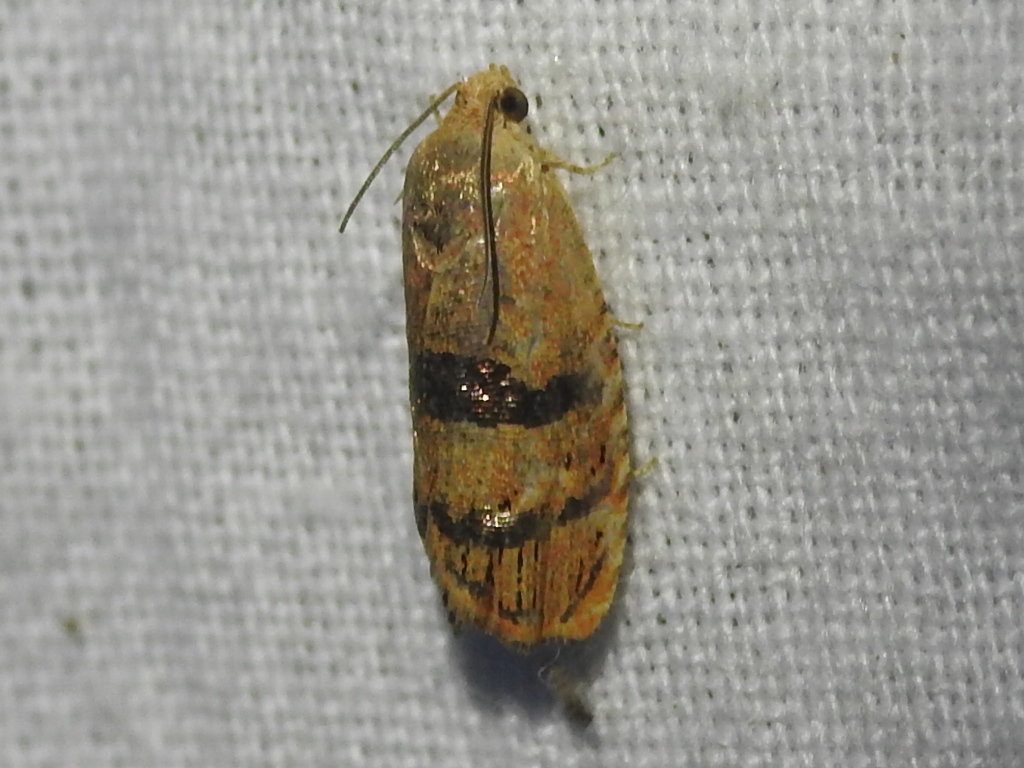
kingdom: Animalia
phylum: Arthropoda
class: Insecta
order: Lepidoptera
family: Tortricidae
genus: Cydia
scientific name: Cydia latiferreana
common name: Filbertworm moth
